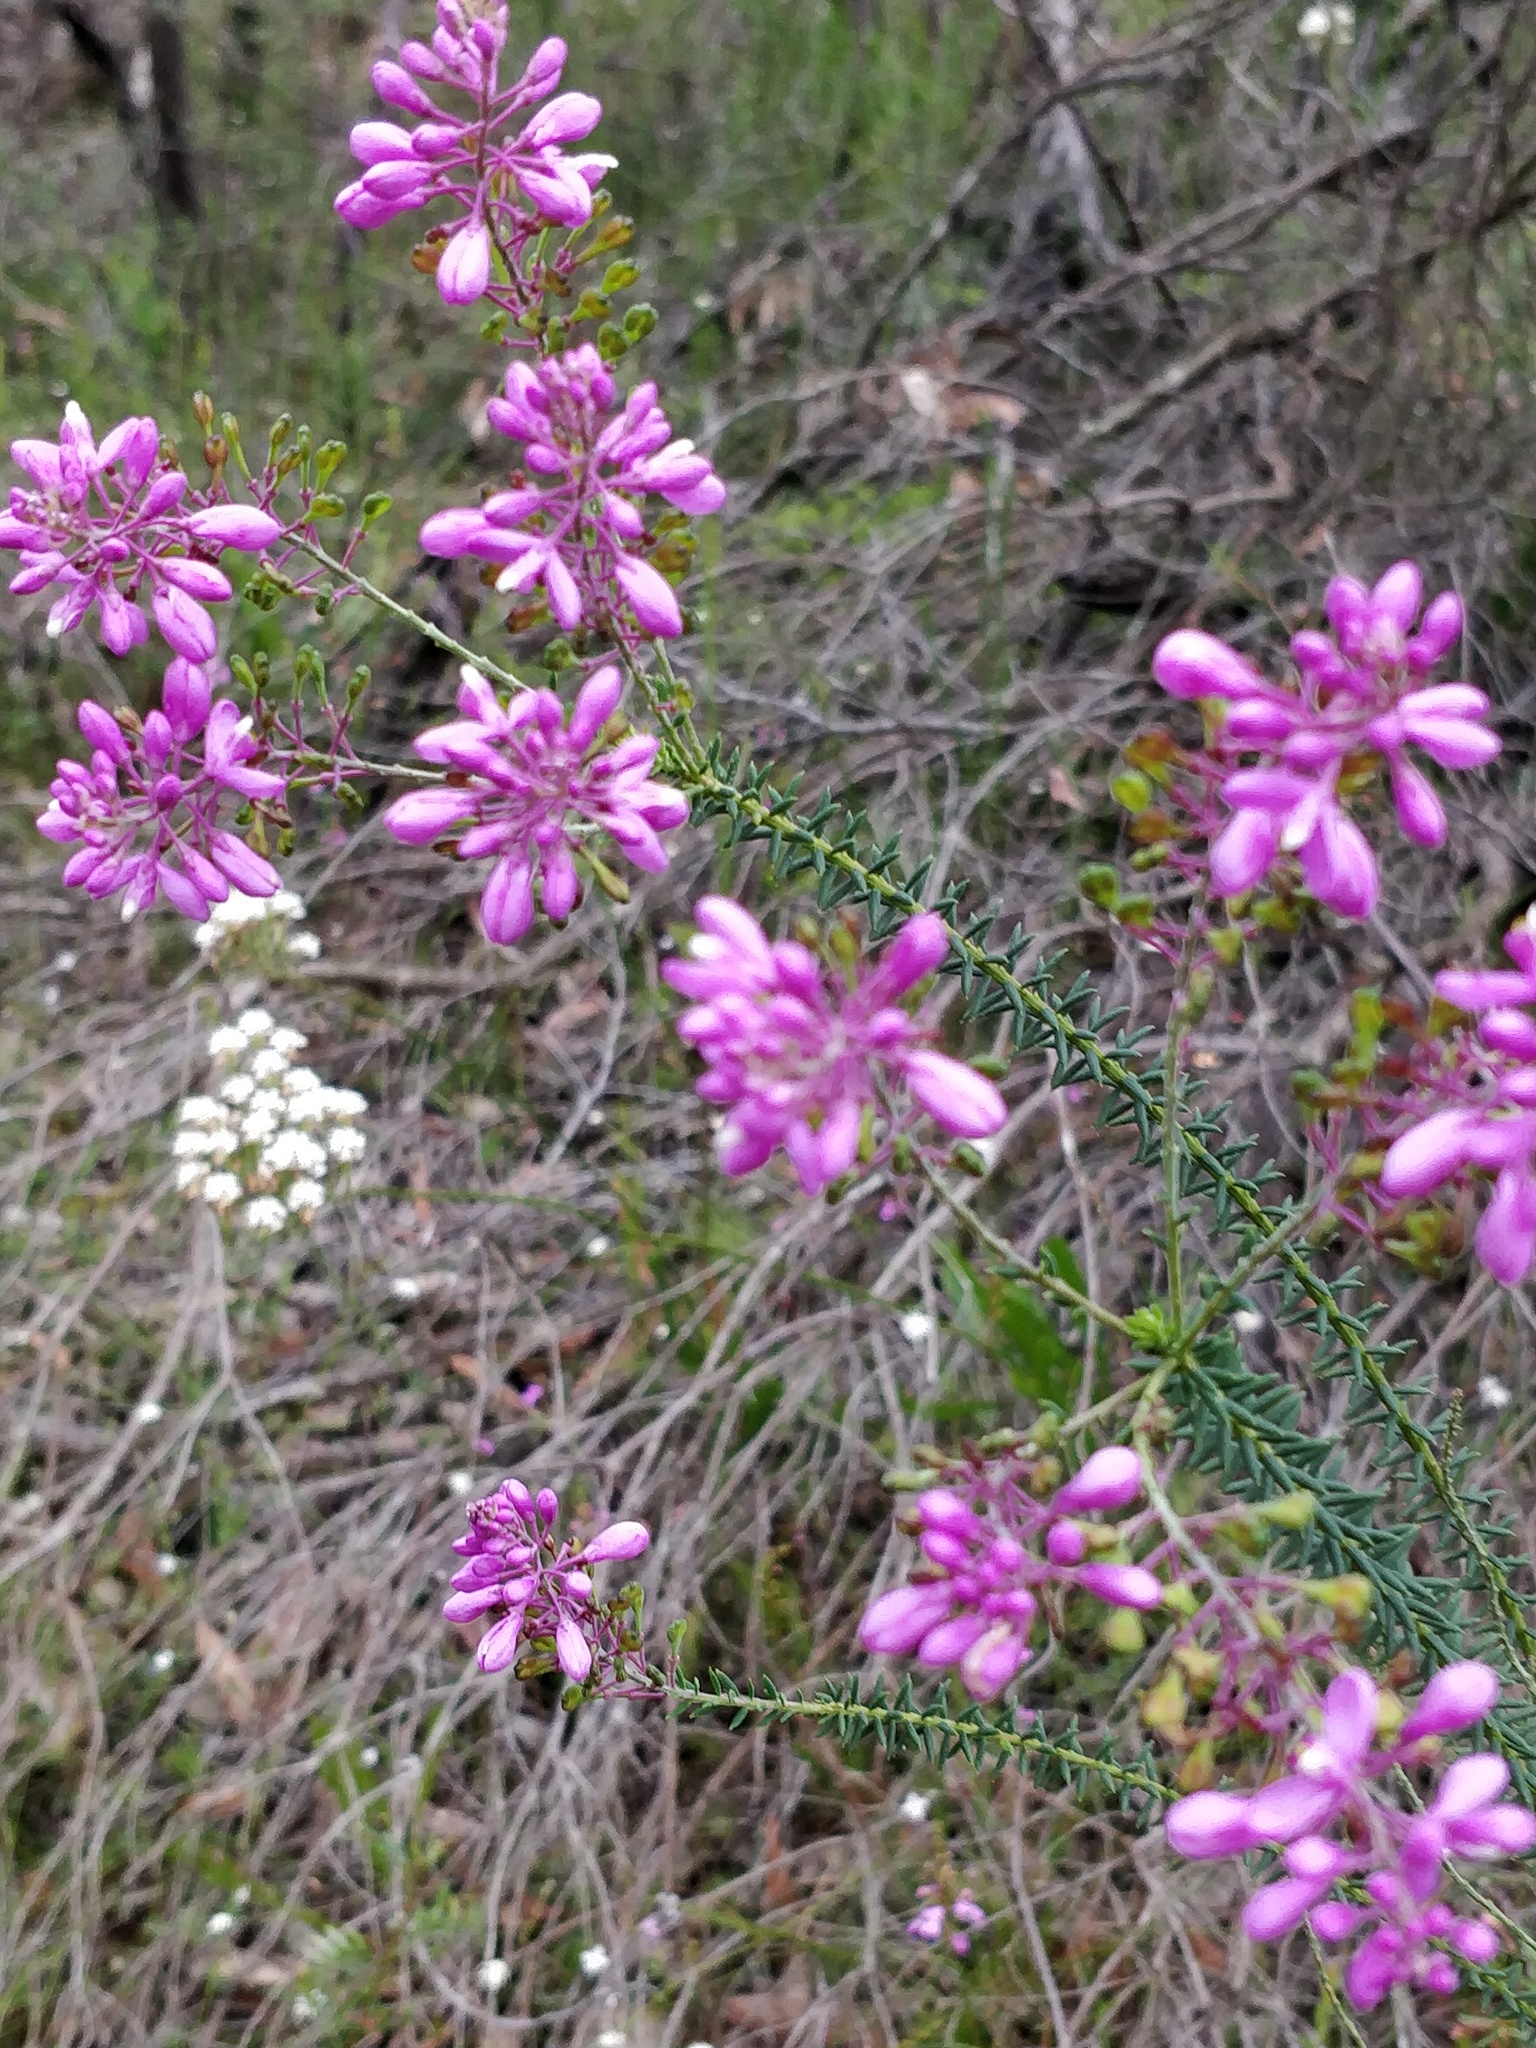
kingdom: Plantae
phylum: Tracheophyta
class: Magnoliopsida
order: Fabales
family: Polygalaceae
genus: Comesperma
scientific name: Comesperma ericinum
